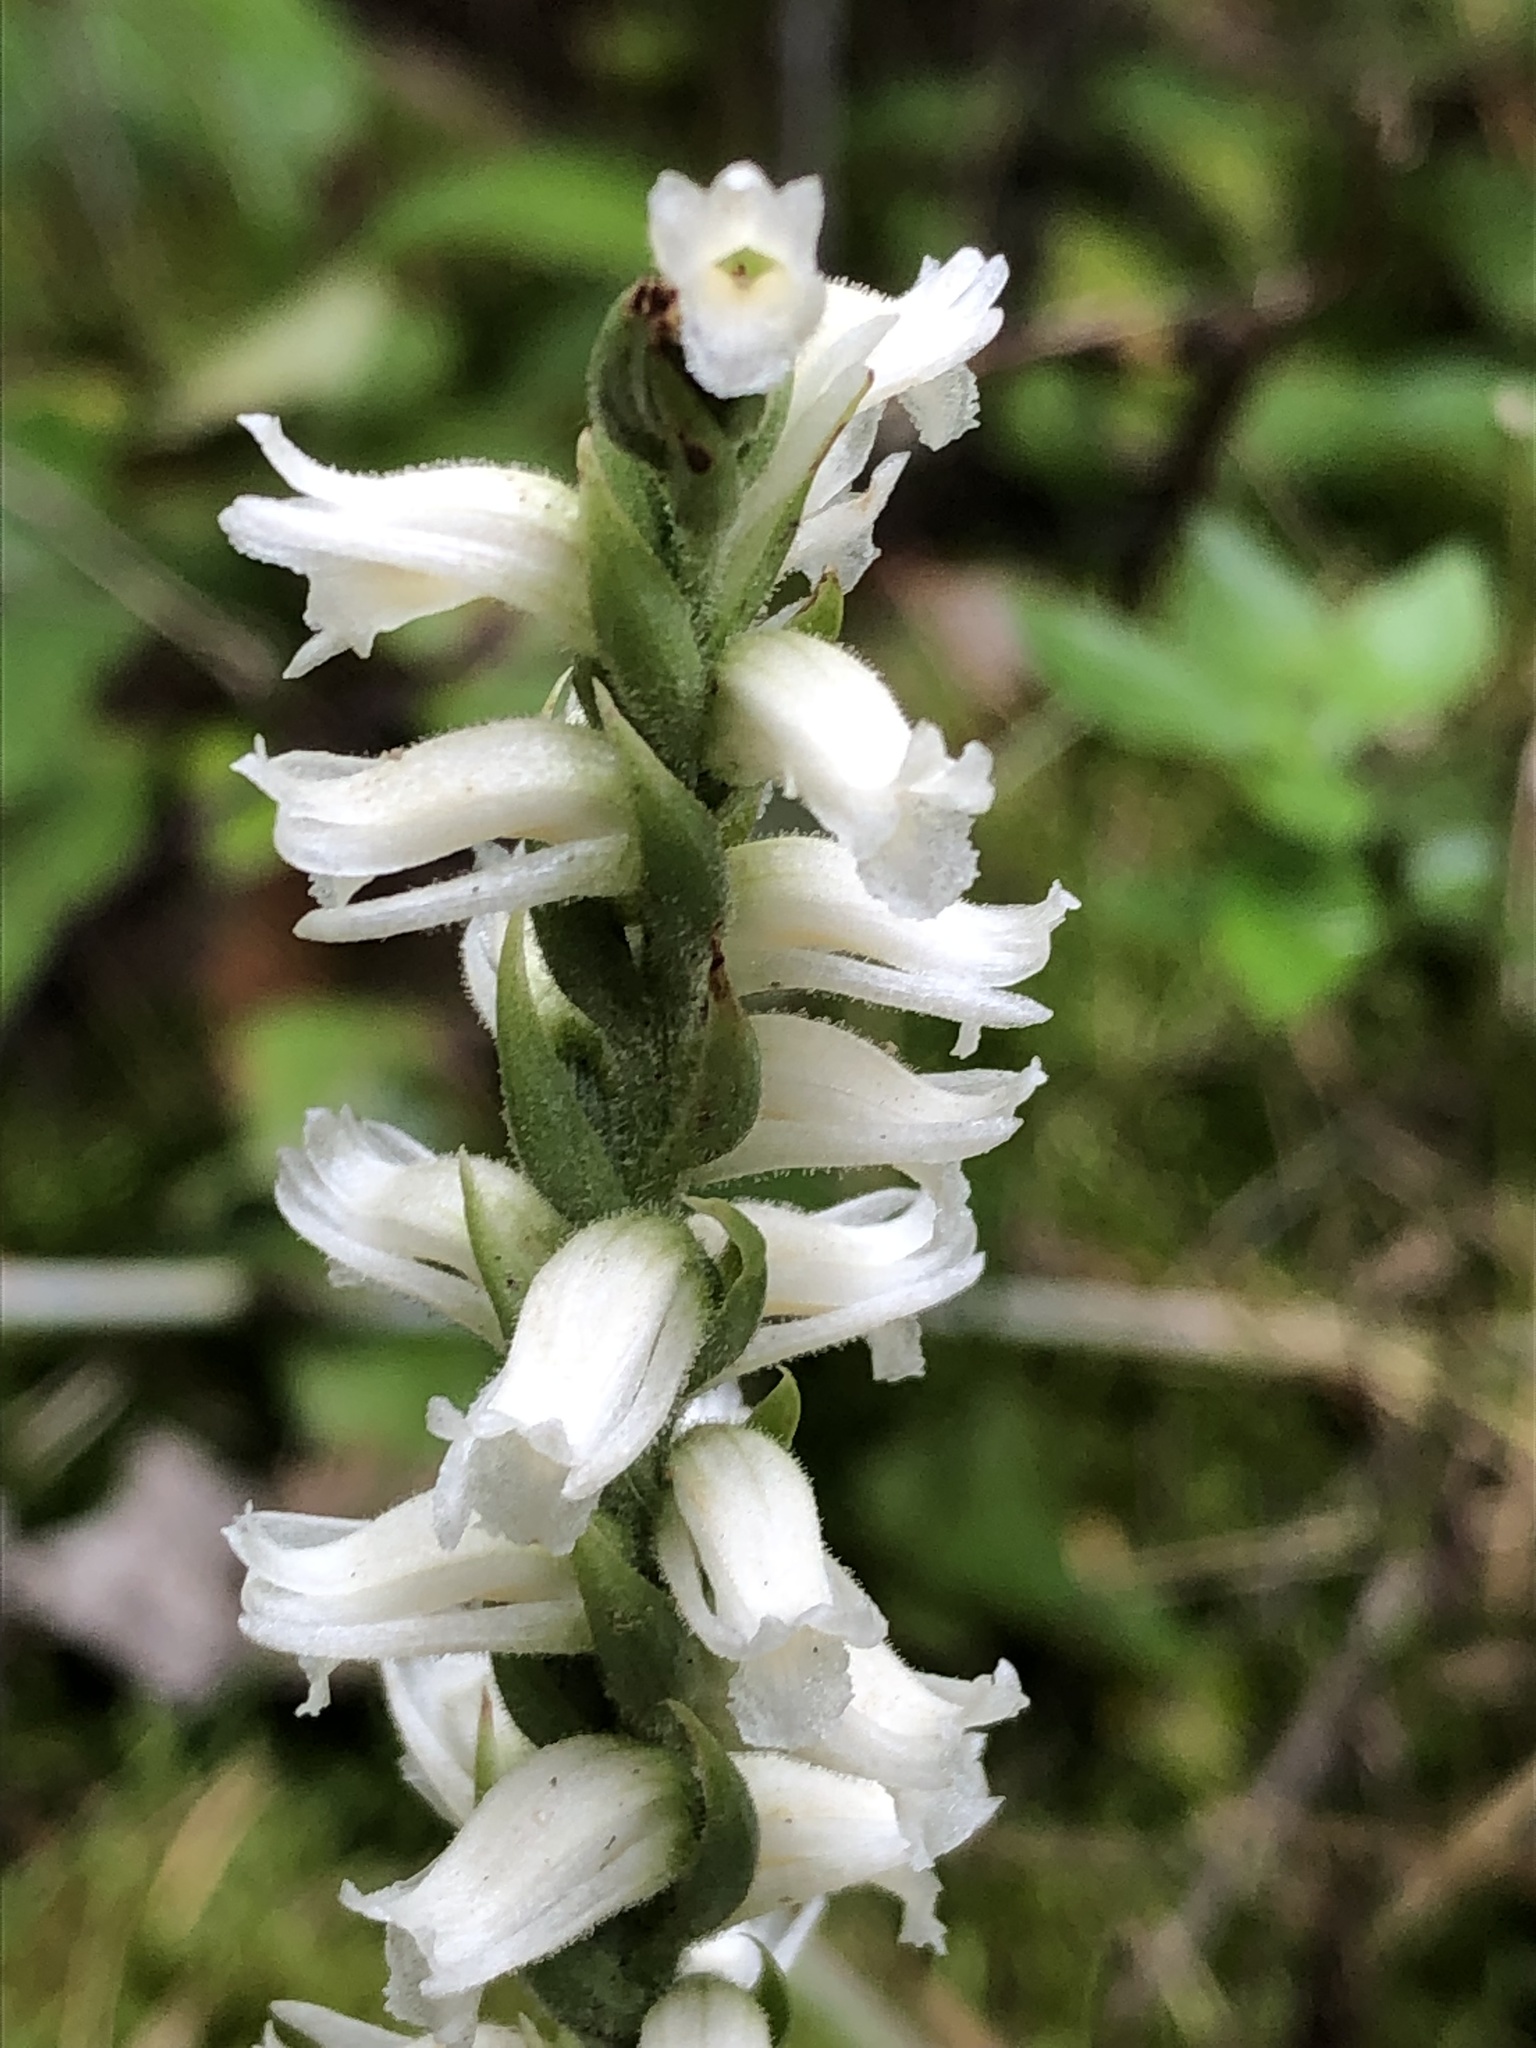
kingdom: Plantae
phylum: Tracheophyta
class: Liliopsida
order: Asparagales
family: Orchidaceae
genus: Spiranthes
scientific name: Spiranthes ochroleuca
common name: Yellow ladies'-tresses
